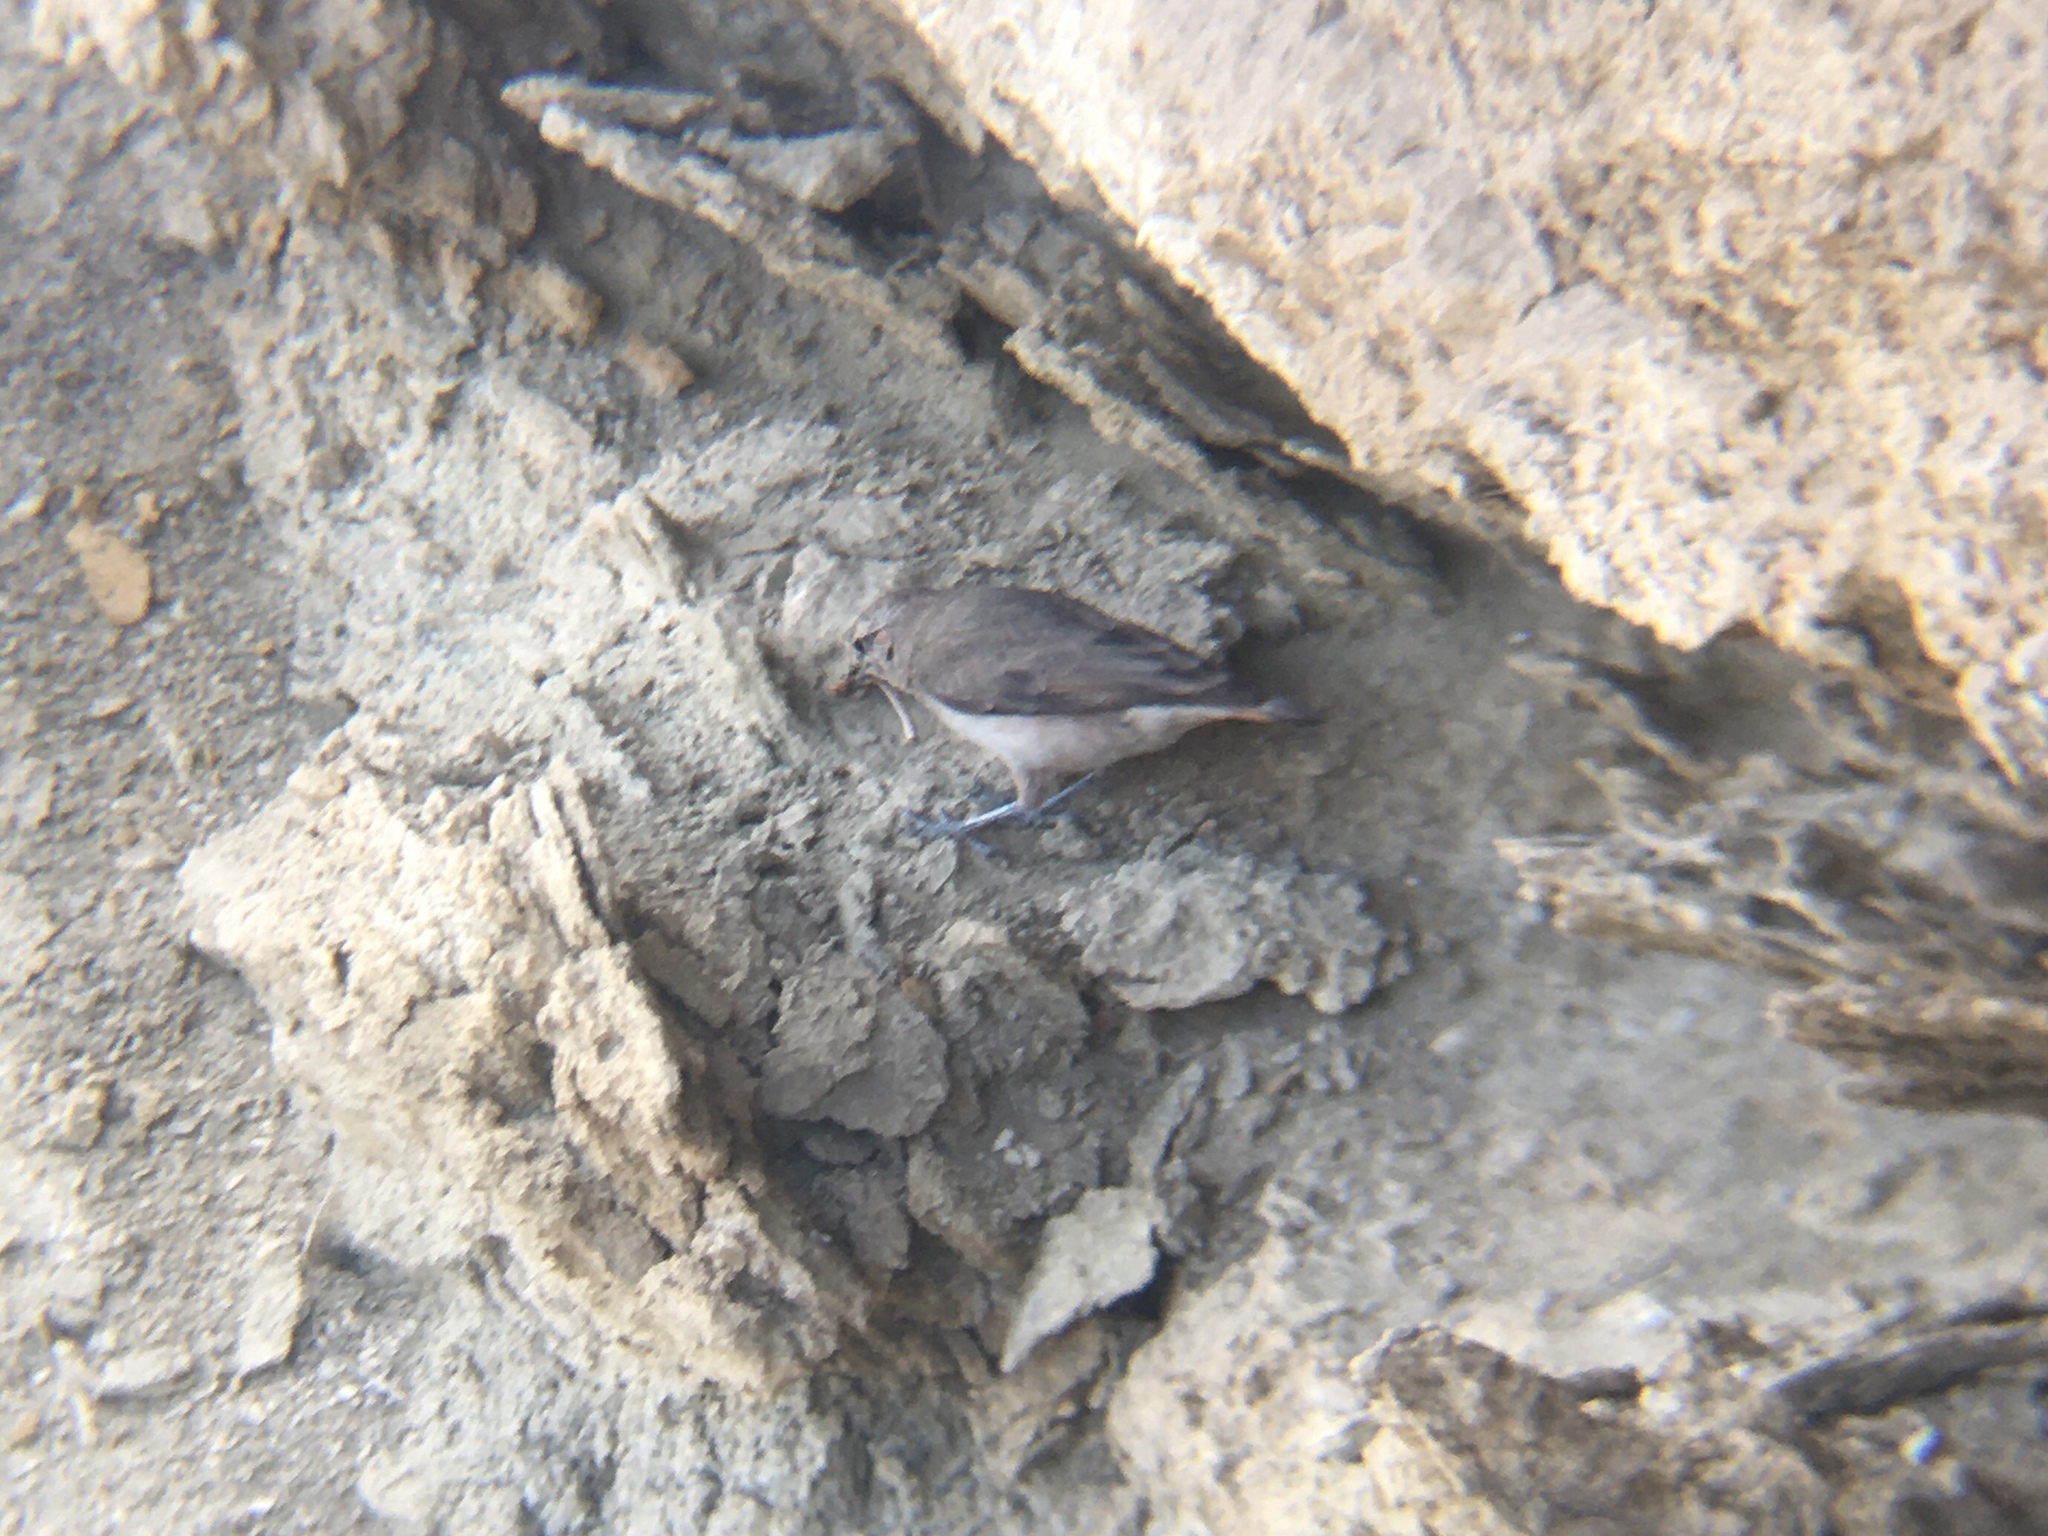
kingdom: Animalia
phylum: Chordata
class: Aves
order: Passeriformes
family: Furnariidae
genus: Geositta
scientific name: Geositta rufipennis
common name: Rufous-banded miner
